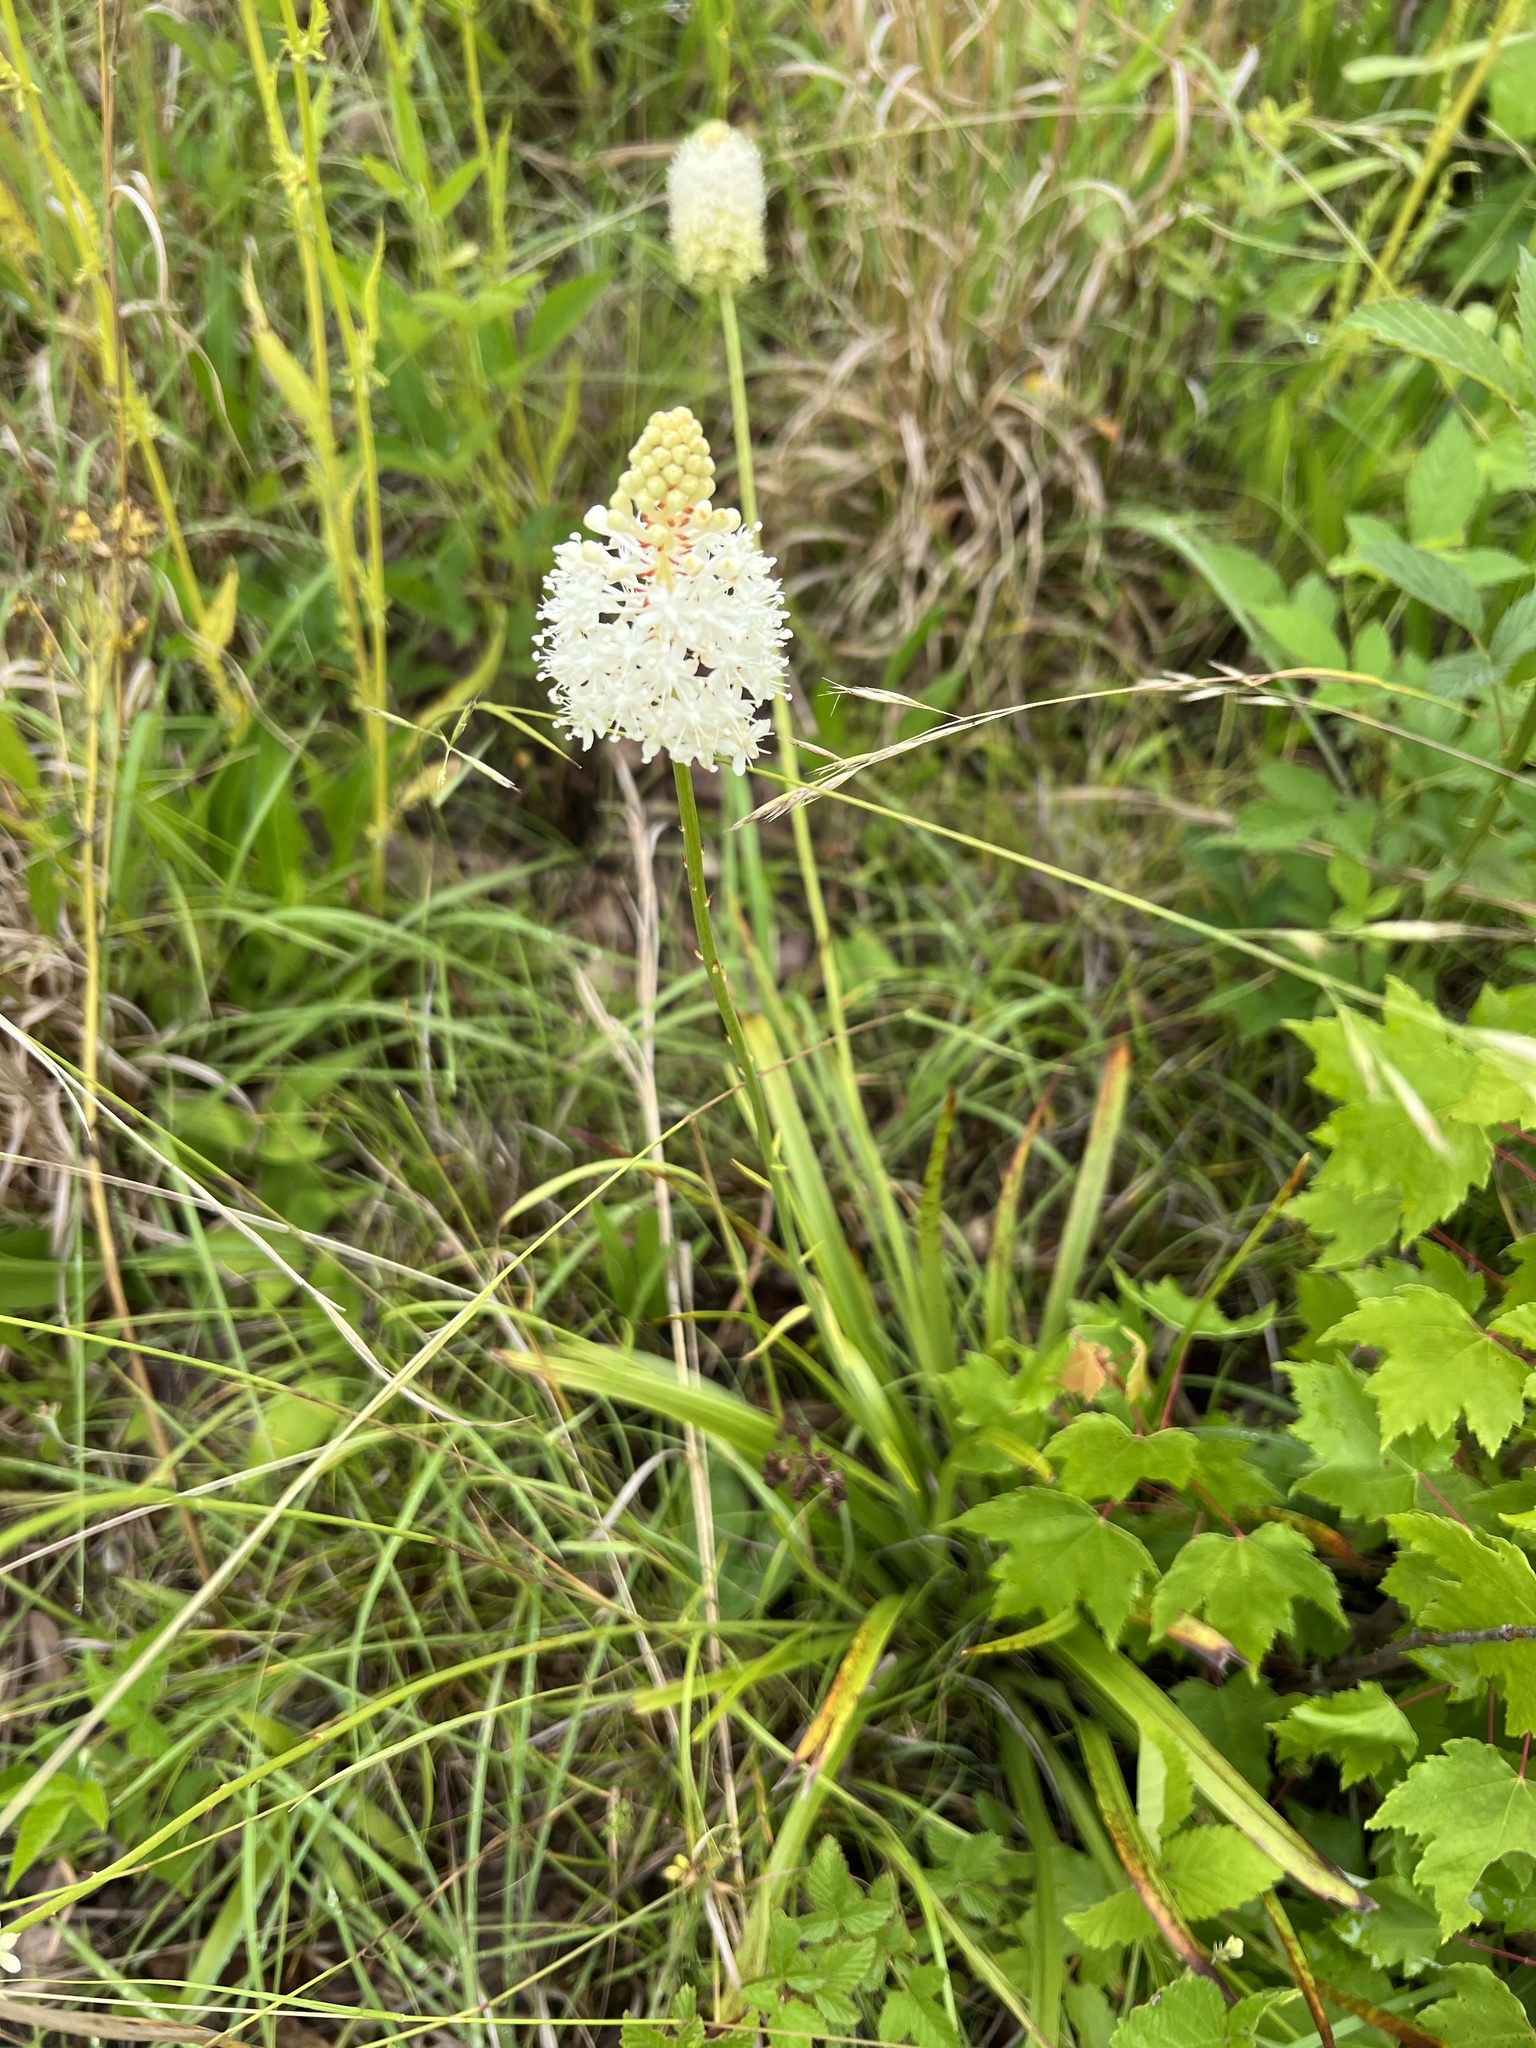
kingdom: Plantae
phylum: Tracheophyta
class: Liliopsida
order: Liliales
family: Melanthiaceae
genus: Amianthium
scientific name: Amianthium muscitoxicum
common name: Fly-poison
